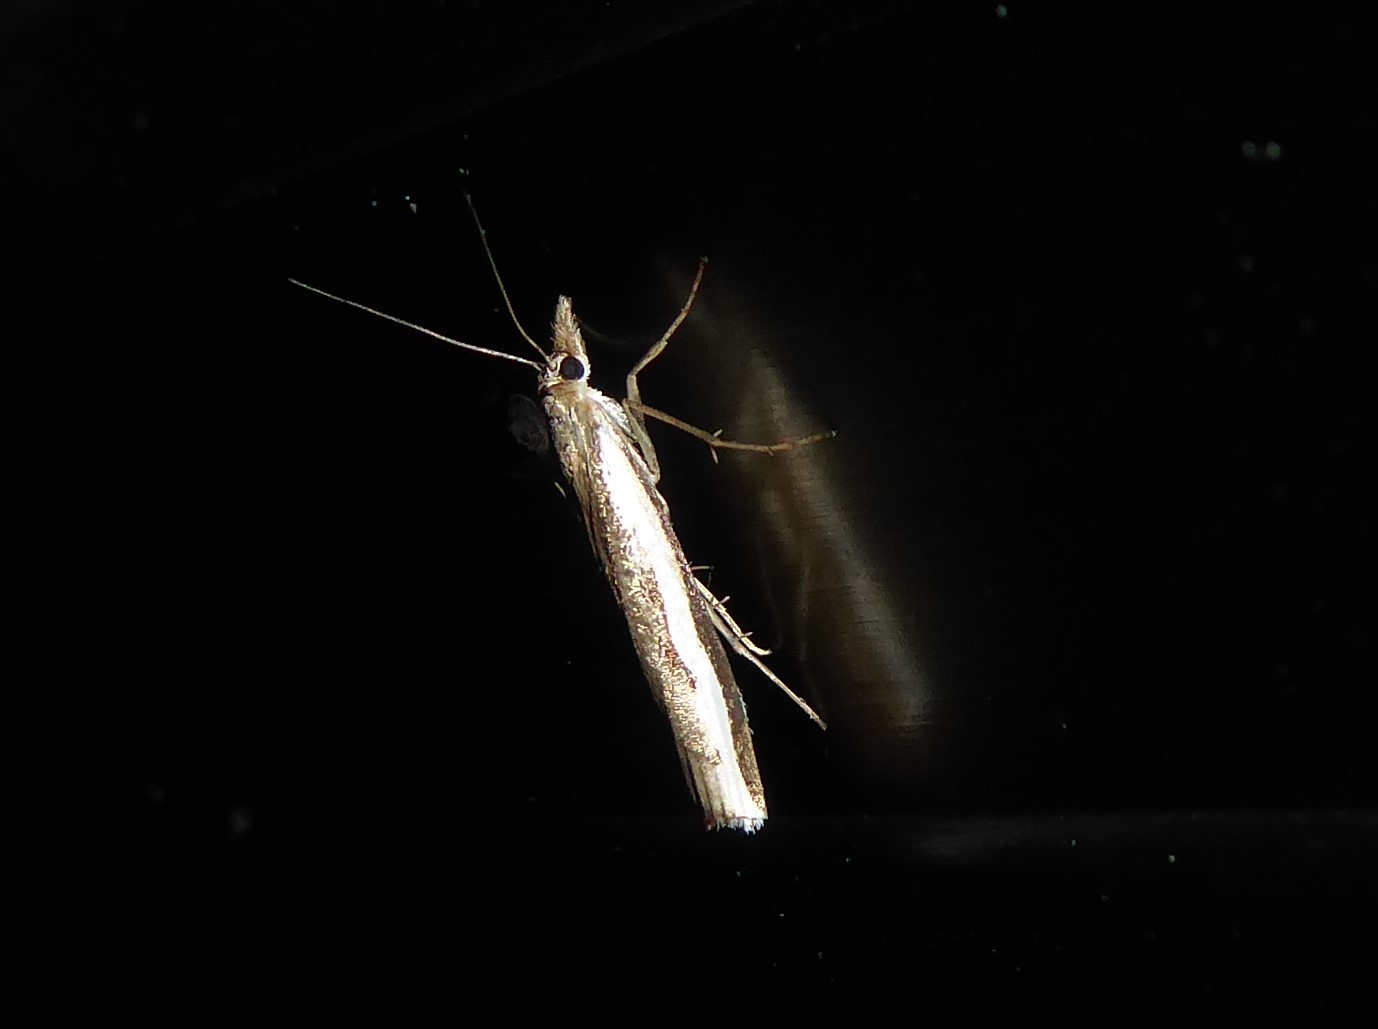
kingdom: Animalia
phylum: Arthropoda
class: Insecta
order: Lepidoptera
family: Crambidae
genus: Orocrambus
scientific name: Orocrambus flexuosellus
